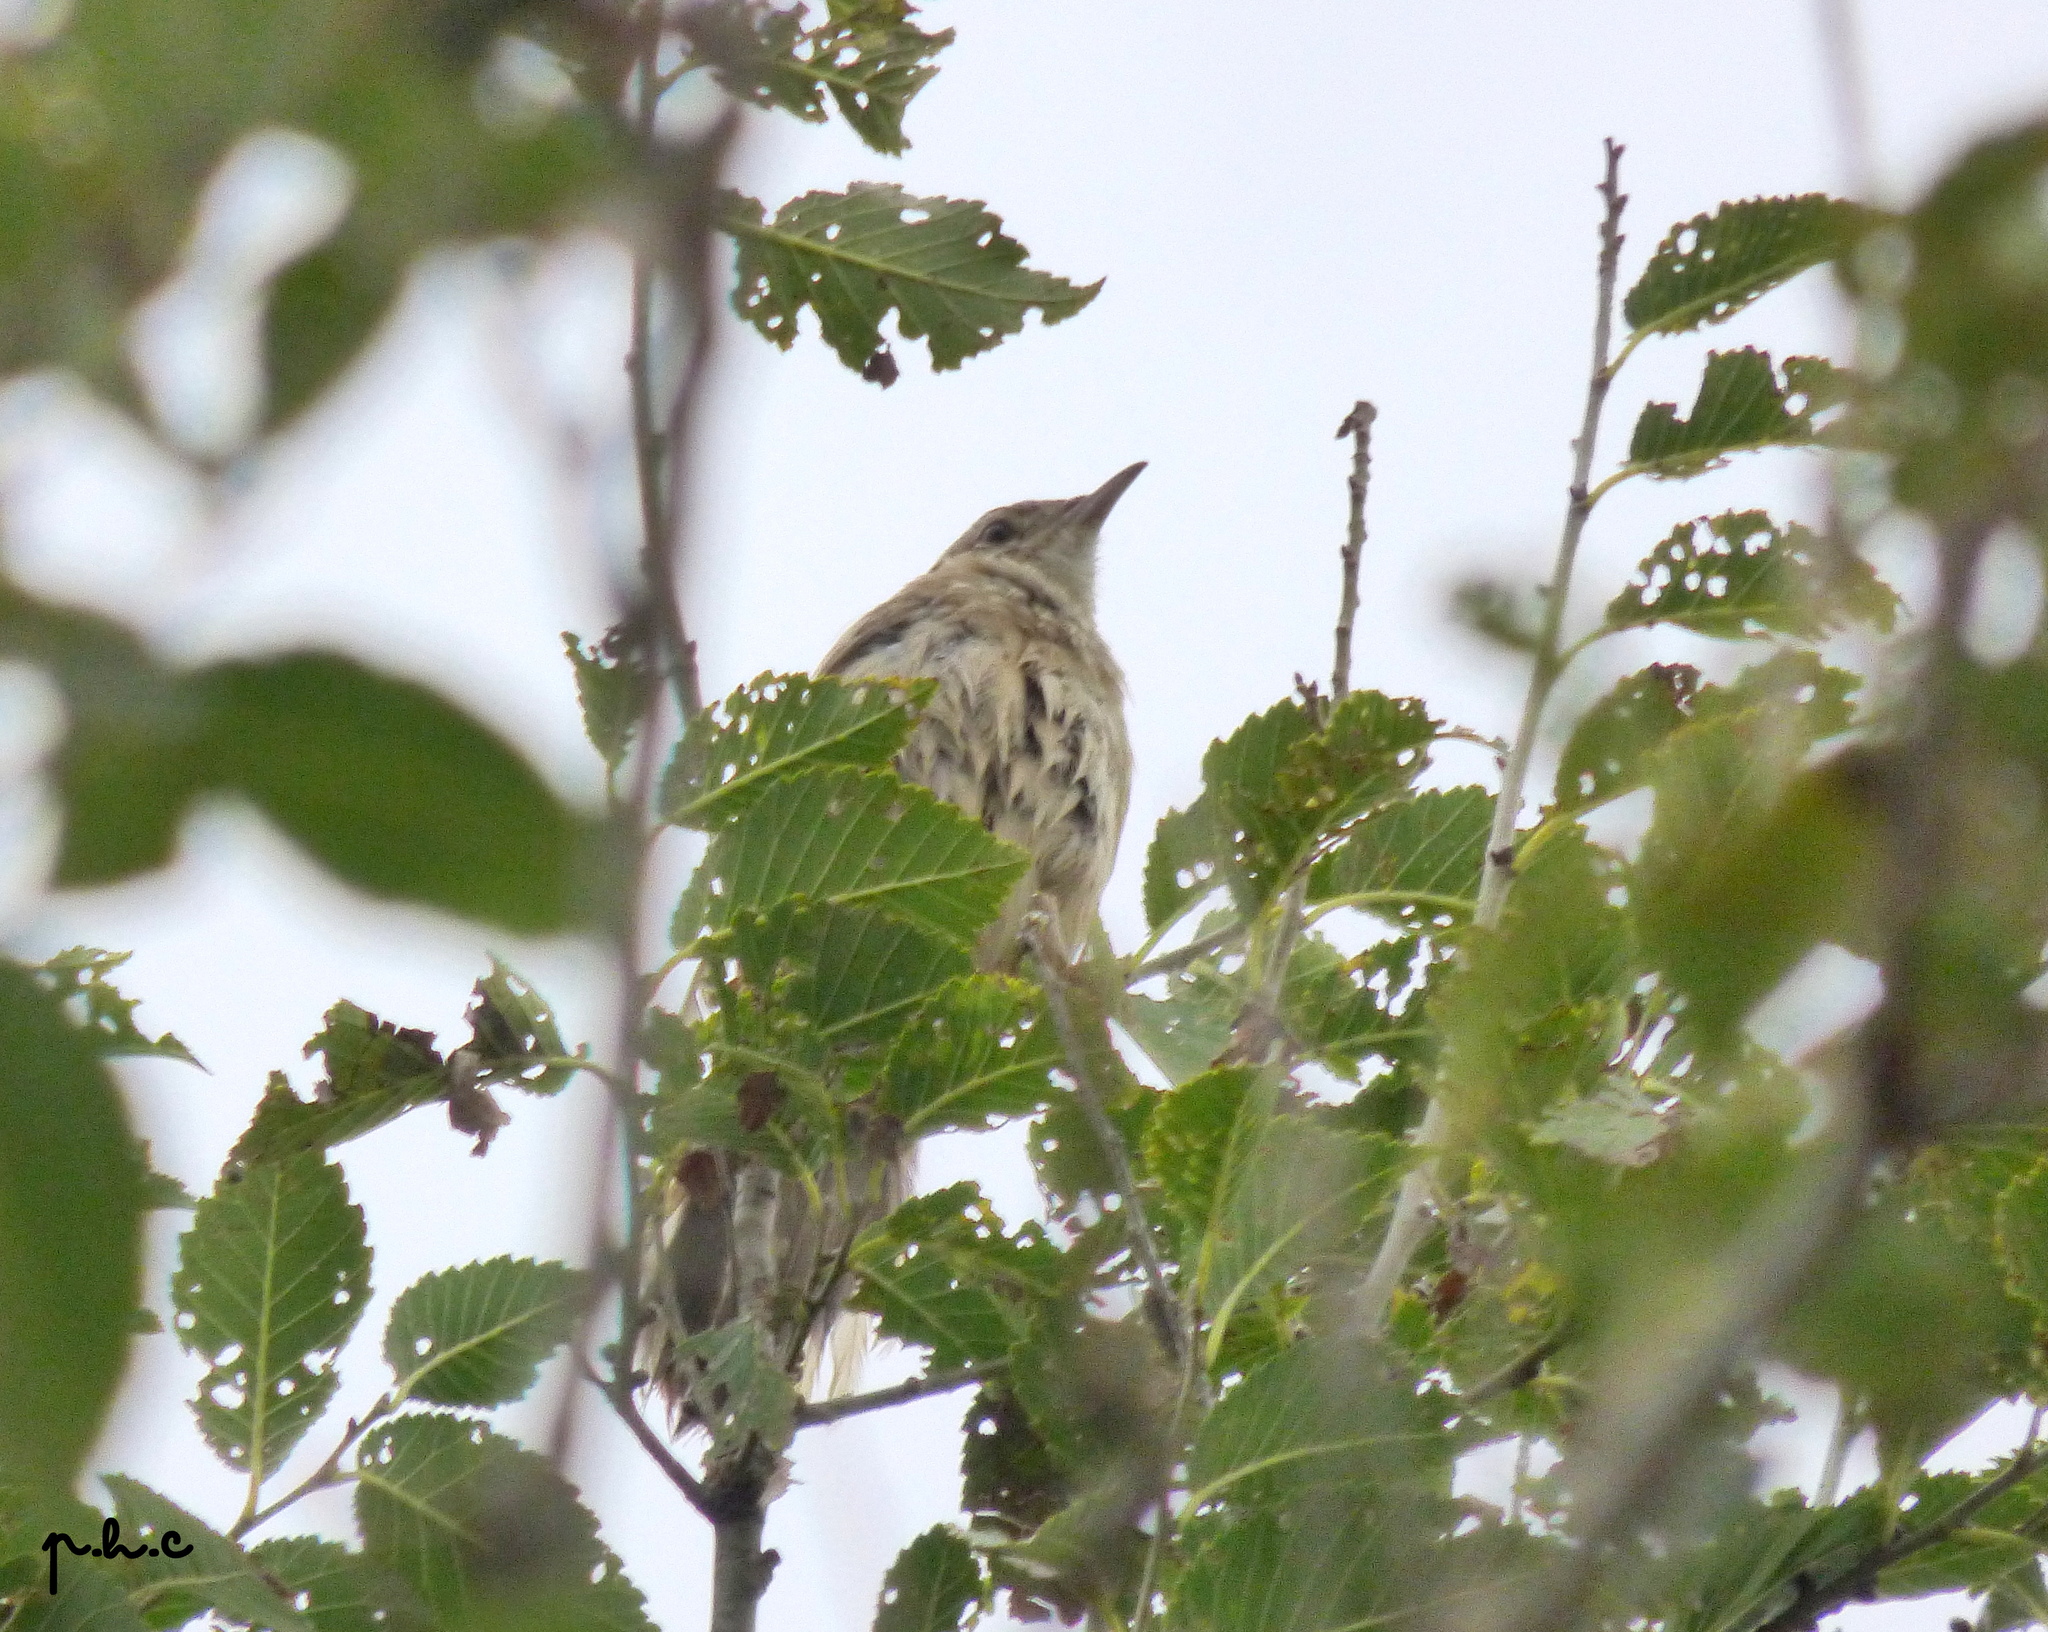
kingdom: Animalia
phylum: Chordata
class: Aves
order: Passeriformes
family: Furnariidae
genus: Anumbius
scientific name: Anumbius annumbi
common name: Firewood-gatherer
